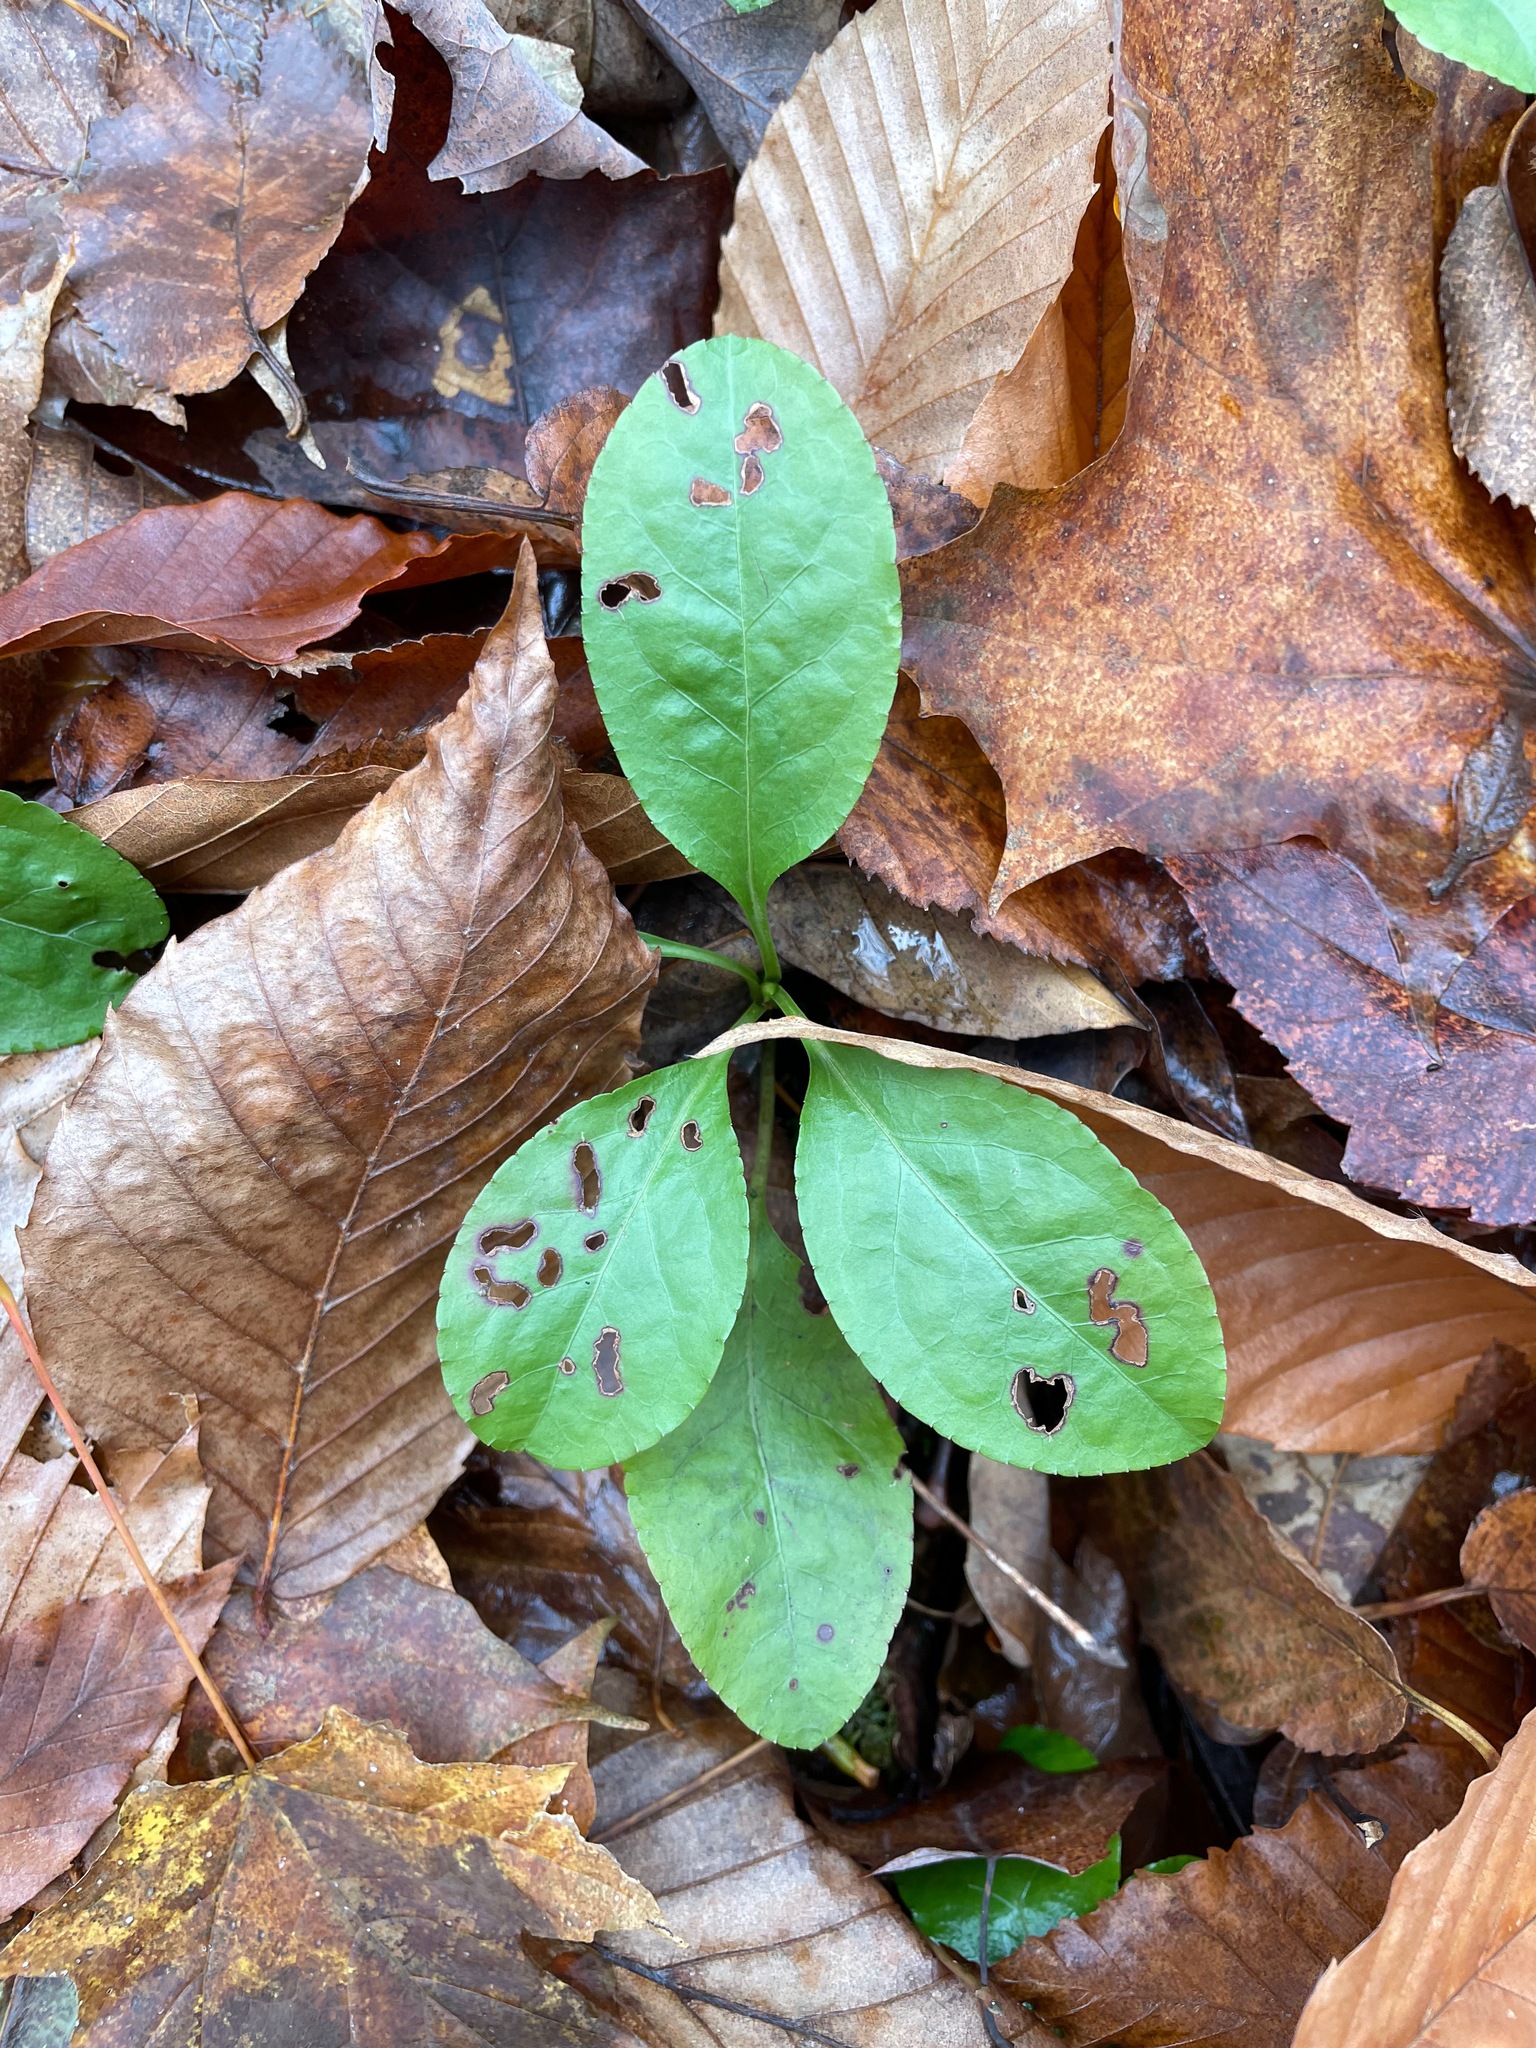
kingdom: Plantae
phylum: Tracheophyta
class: Magnoliopsida
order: Ericales
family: Ericaceae
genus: Pyrola
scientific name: Pyrola elliptica
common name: Shinleaf
